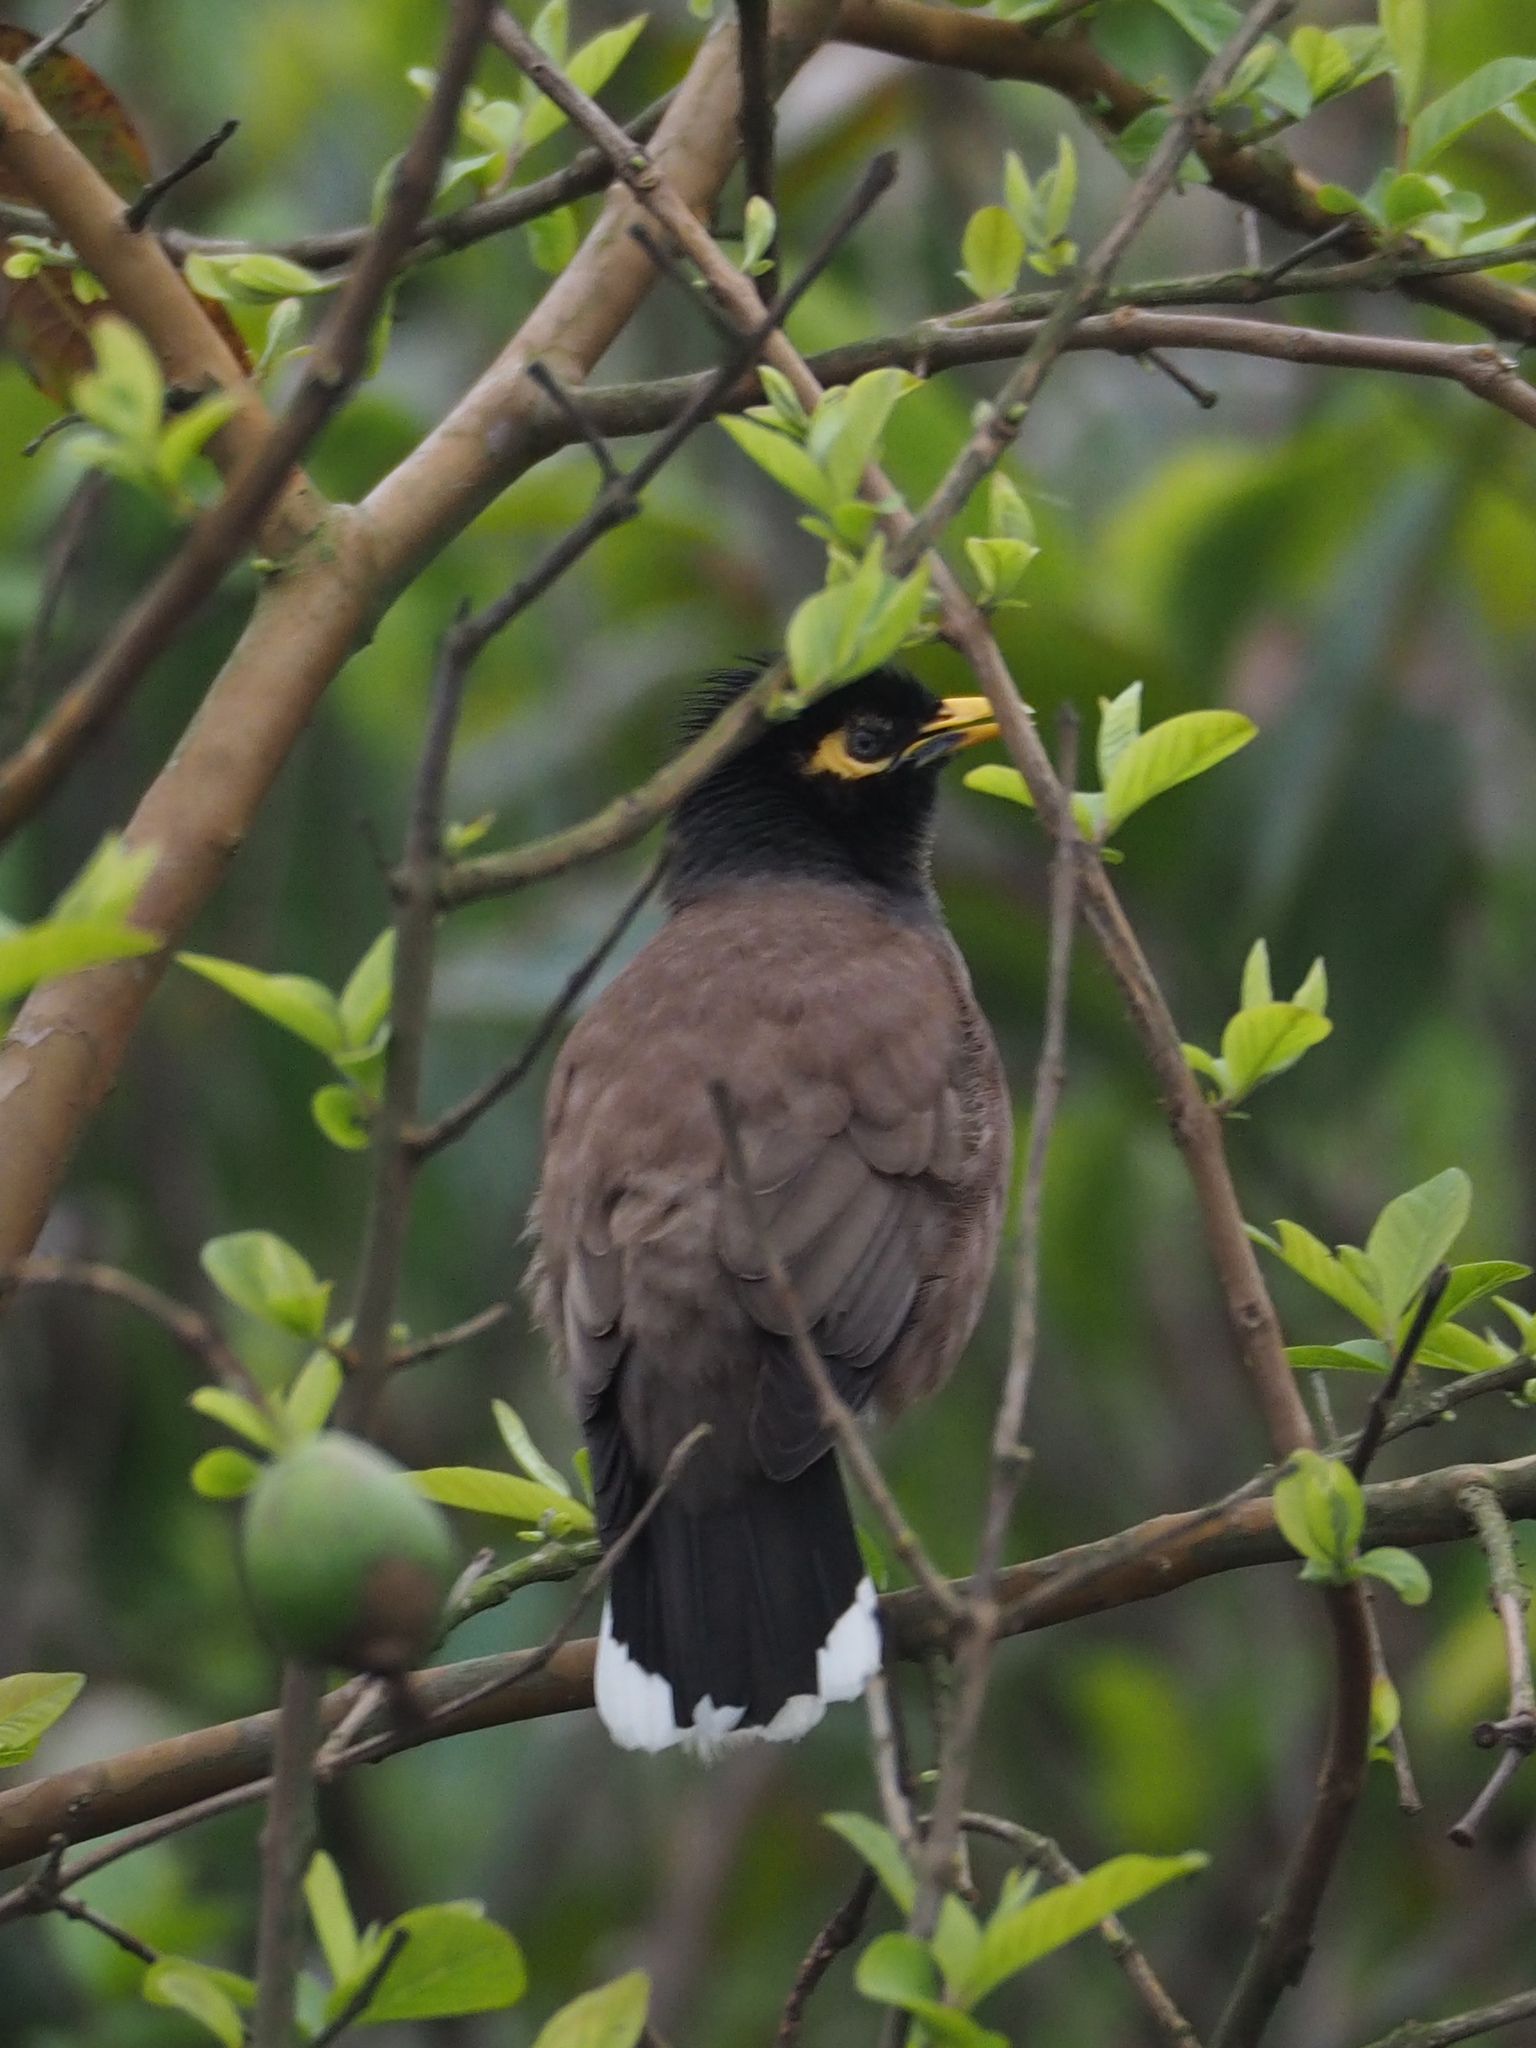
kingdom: Animalia
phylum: Chordata
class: Aves
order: Passeriformes
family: Sturnidae
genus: Acridotheres
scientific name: Acridotheres tristis
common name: Common myna
